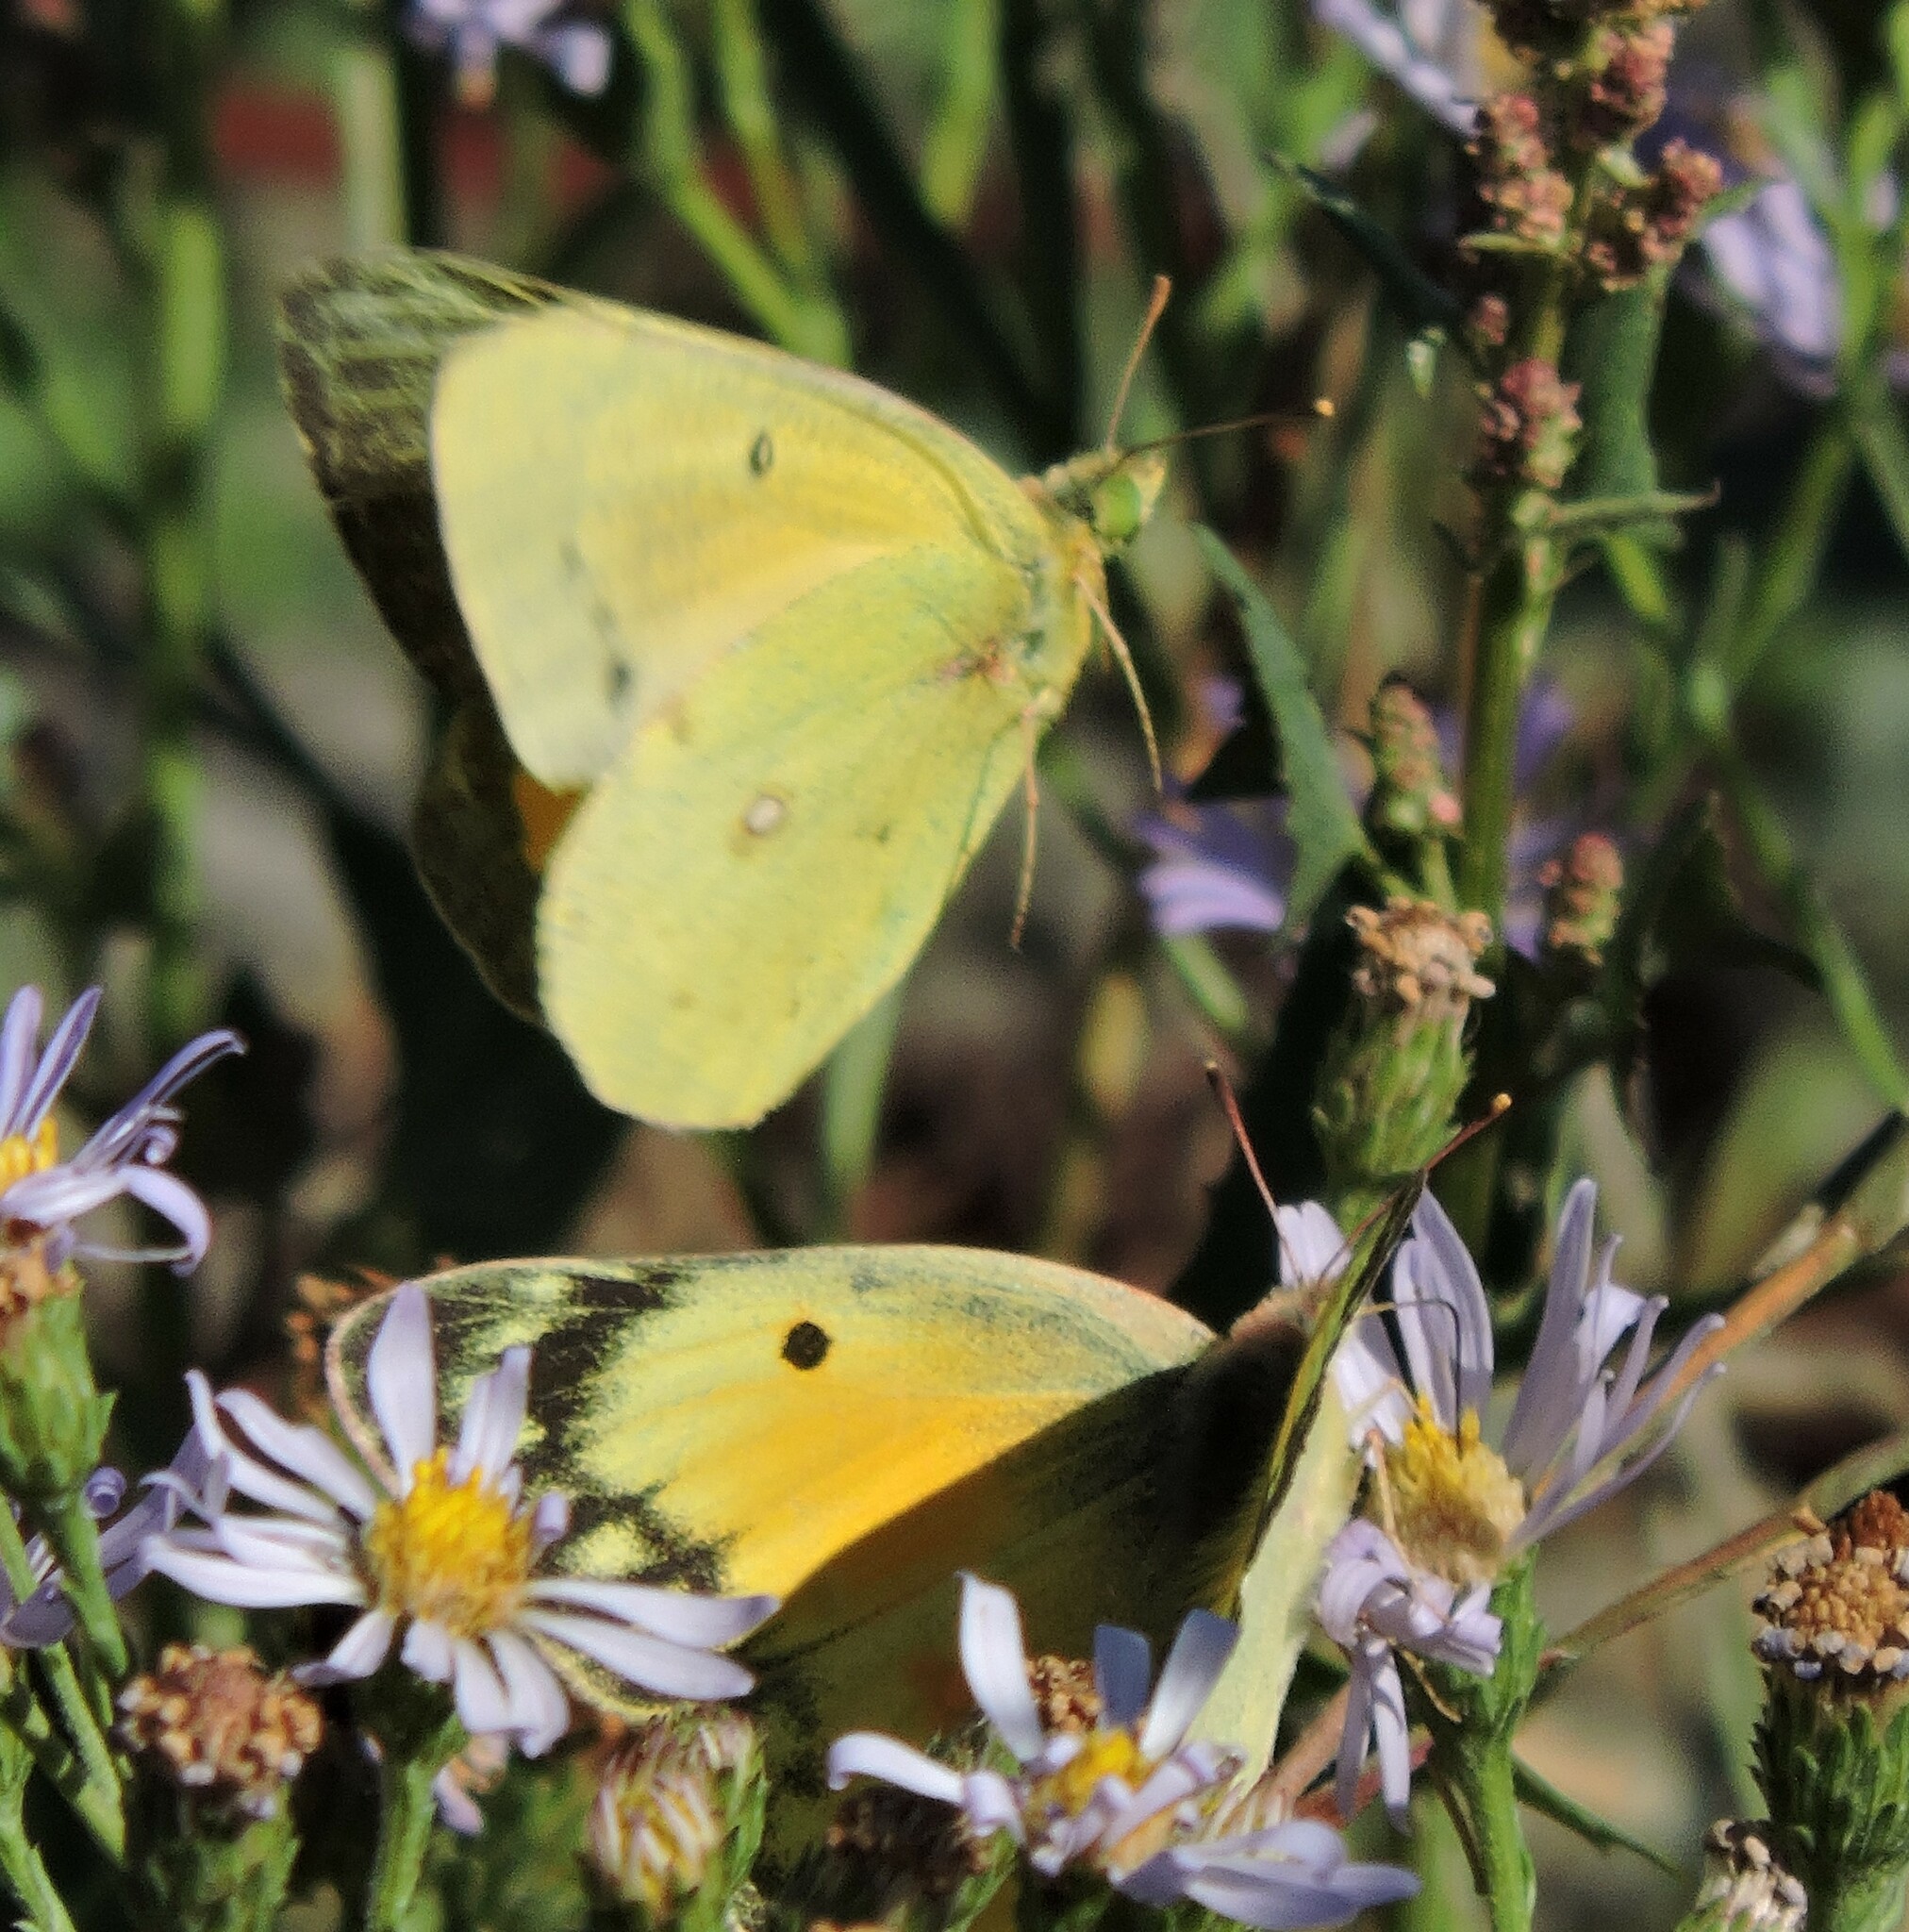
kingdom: Animalia
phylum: Arthropoda
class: Insecta
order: Lepidoptera
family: Pieridae
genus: Colias
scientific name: Colias eurytheme
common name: Alfalfa butterfly
